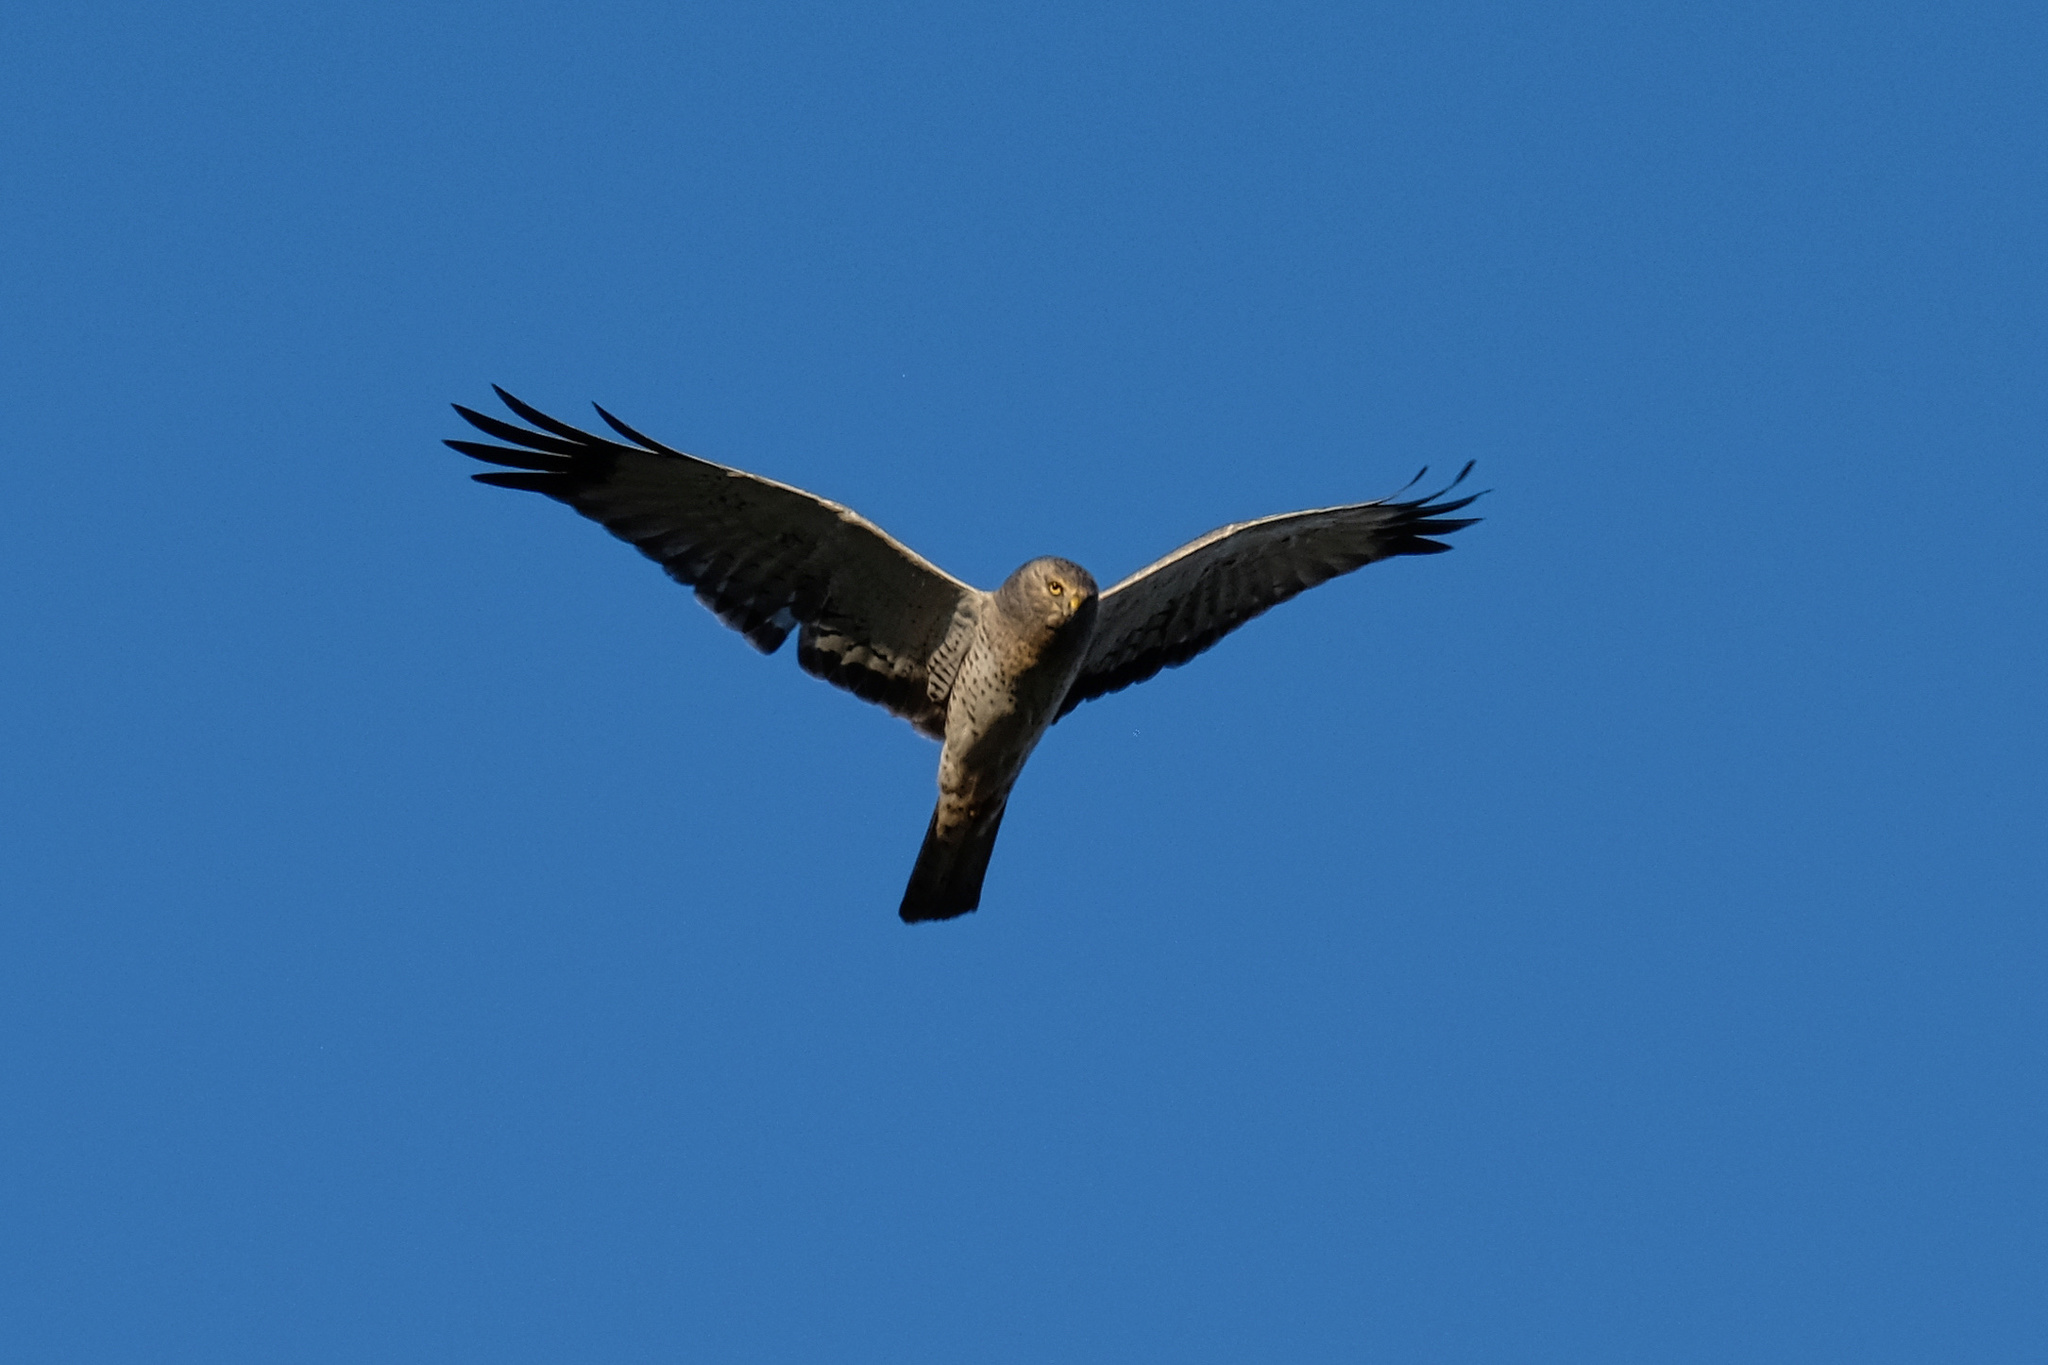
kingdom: Animalia
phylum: Chordata
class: Aves
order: Accipitriformes
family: Accipitridae
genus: Circus
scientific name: Circus cyaneus
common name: Hen harrier
